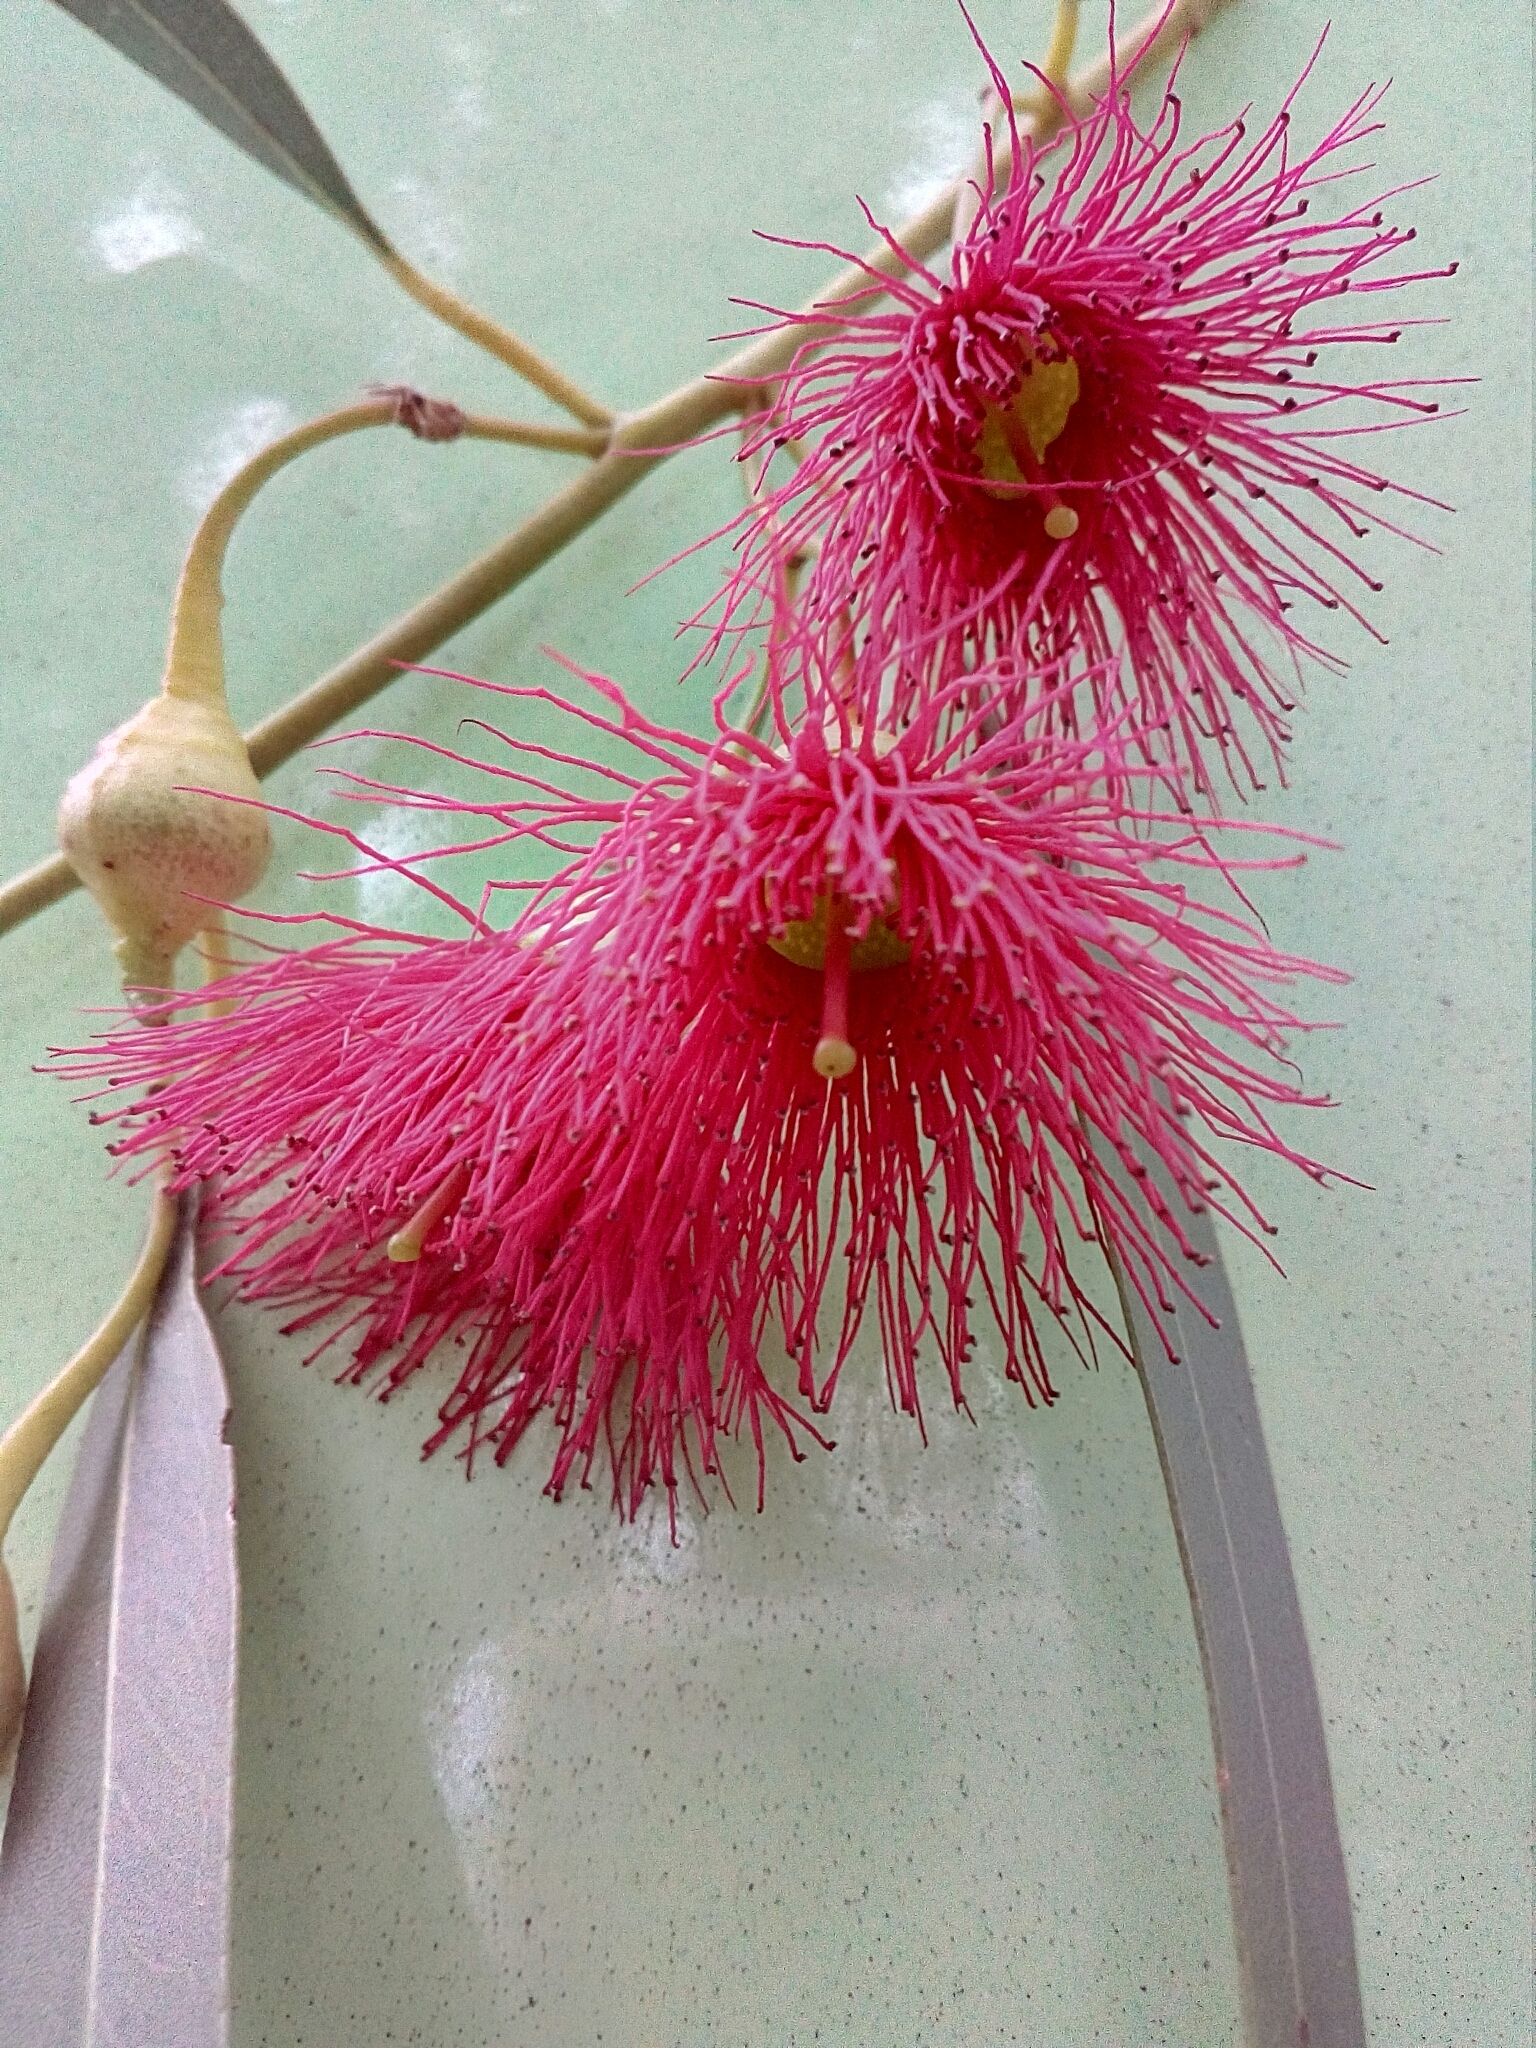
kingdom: Plantae
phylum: Tracheophyta
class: Magnoliopsida
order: Myrtales
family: Myrtaceae
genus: Eucalyptus
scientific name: Eucalyptus leucoxylon
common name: Blue gum
